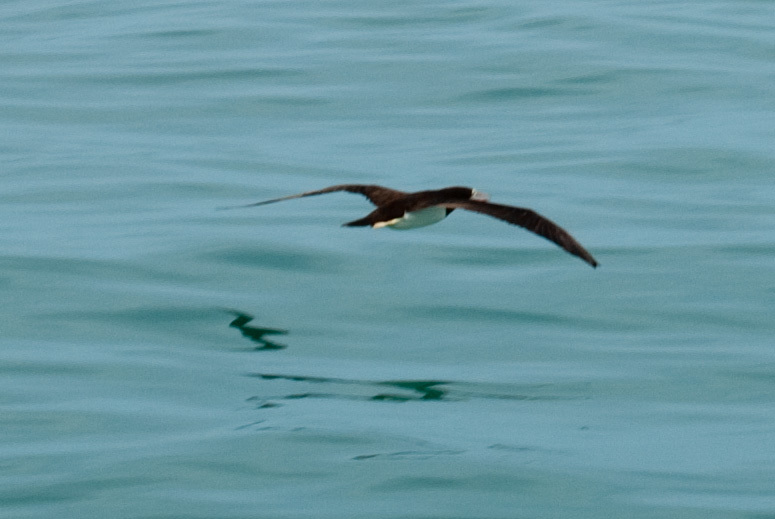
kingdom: Animalia
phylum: Chordata
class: Aves
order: Suliformes
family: Sulidae
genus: Sula
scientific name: Sula leucogaster
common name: Brown booby
